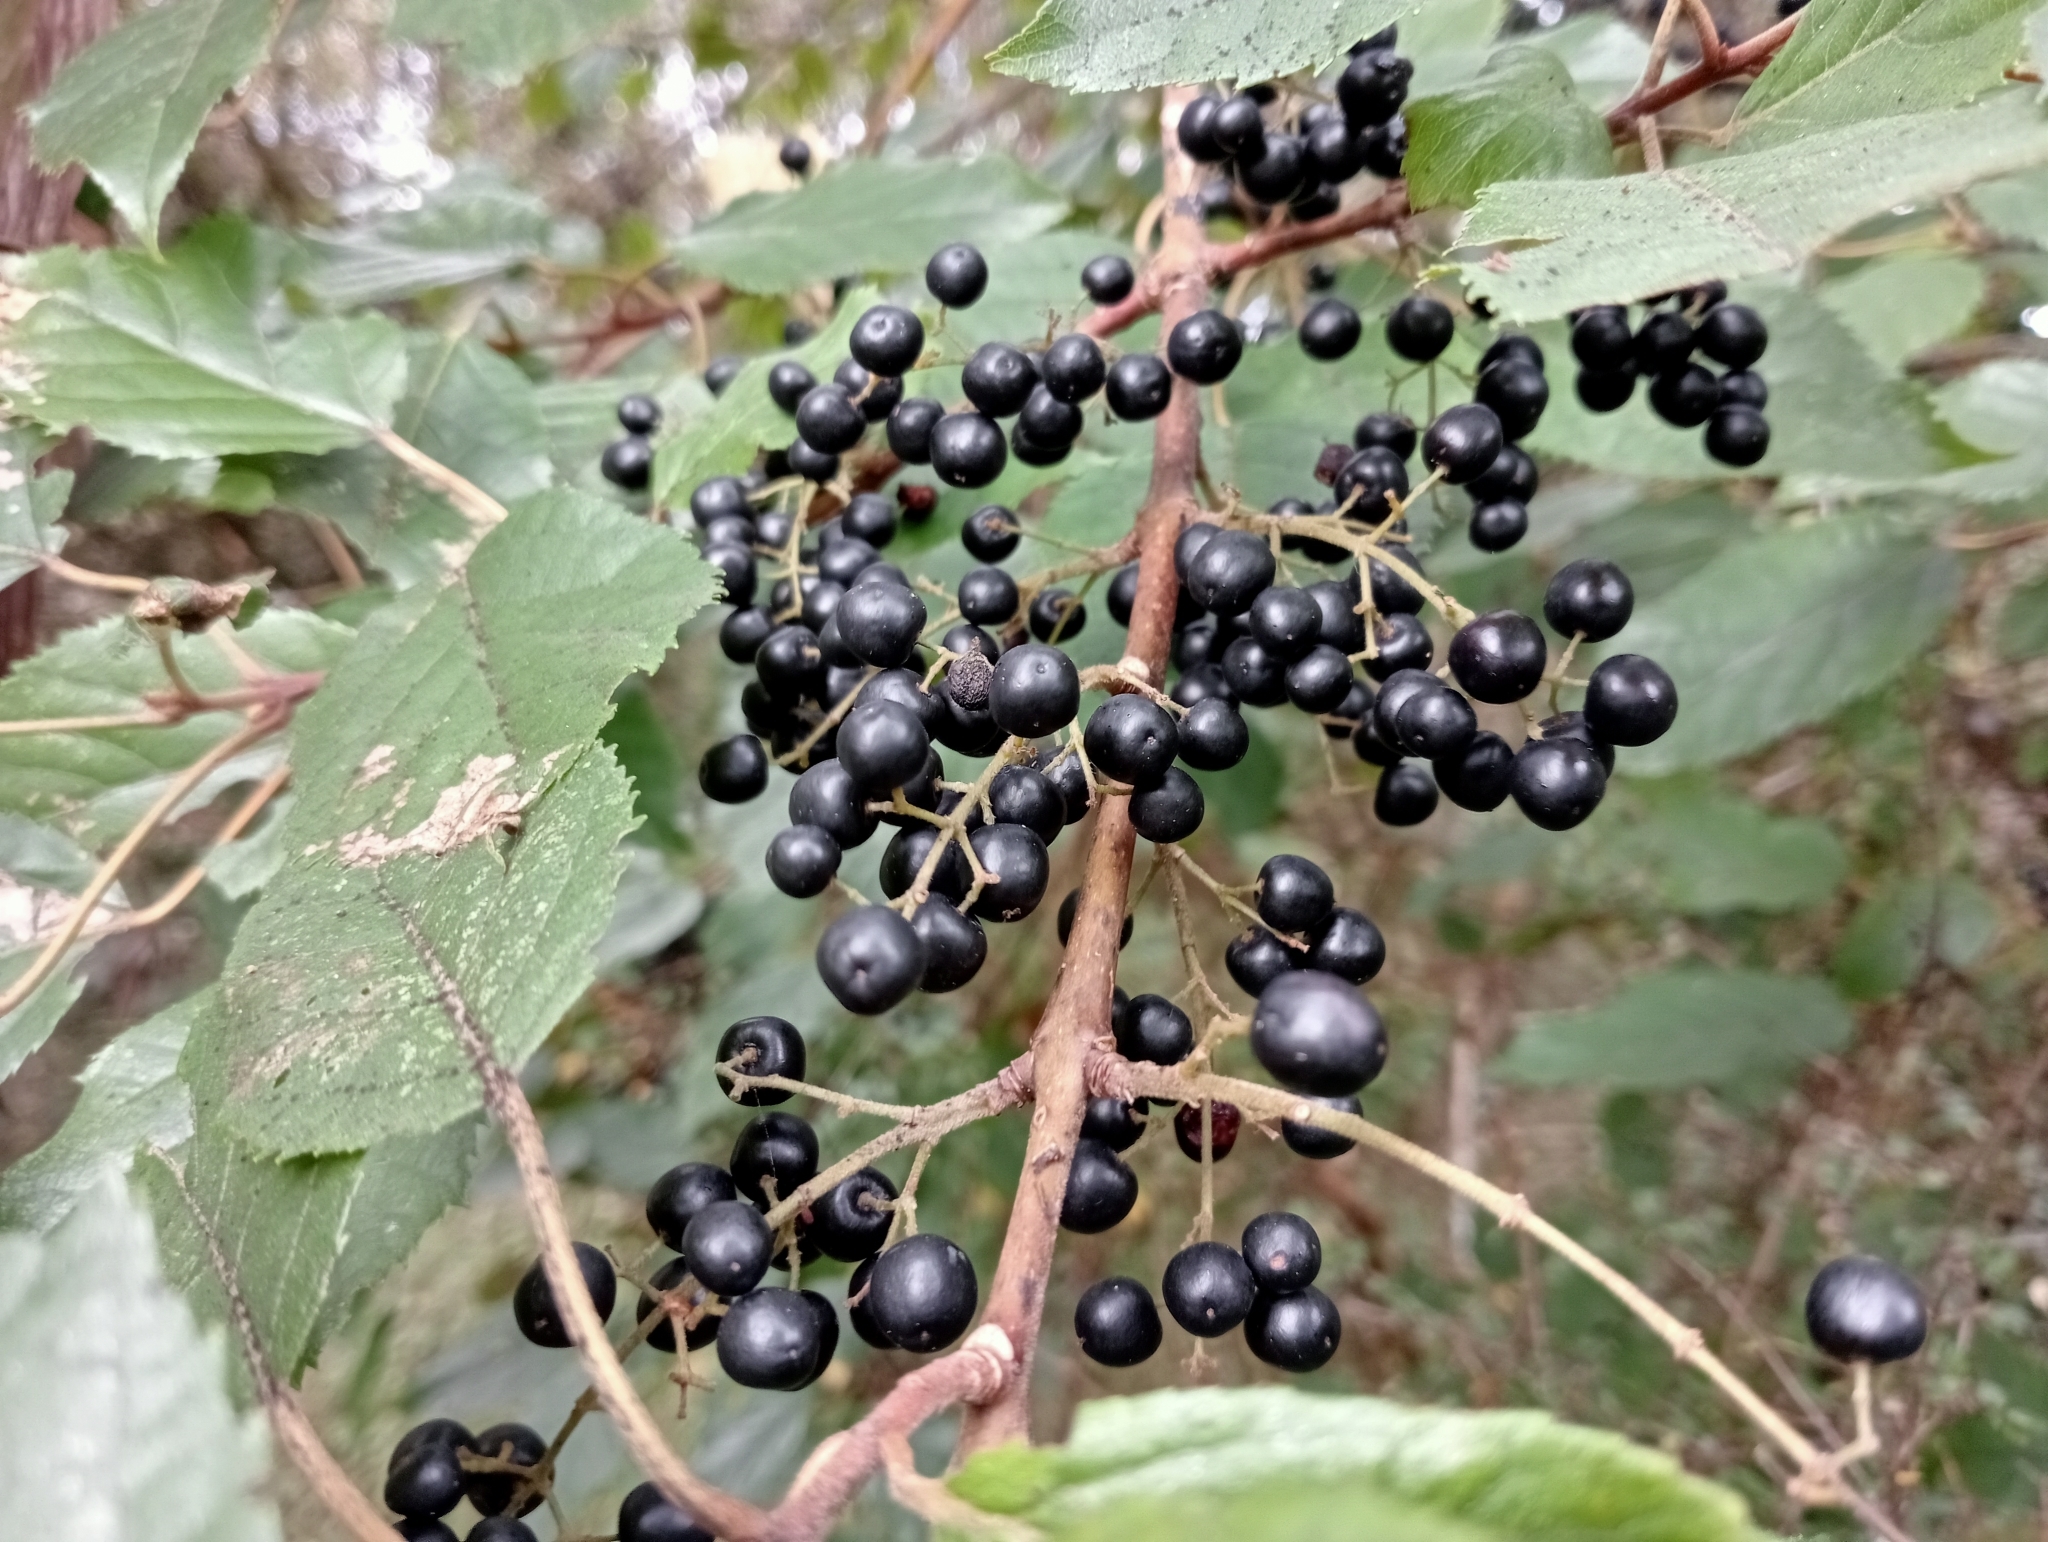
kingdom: Plantae
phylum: Tracheophyta
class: Magnoliopsida
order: Oxalidales
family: Elaeocarpaceae
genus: Aristotelia
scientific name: Aristotelia serrata
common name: New zealand wineberry
